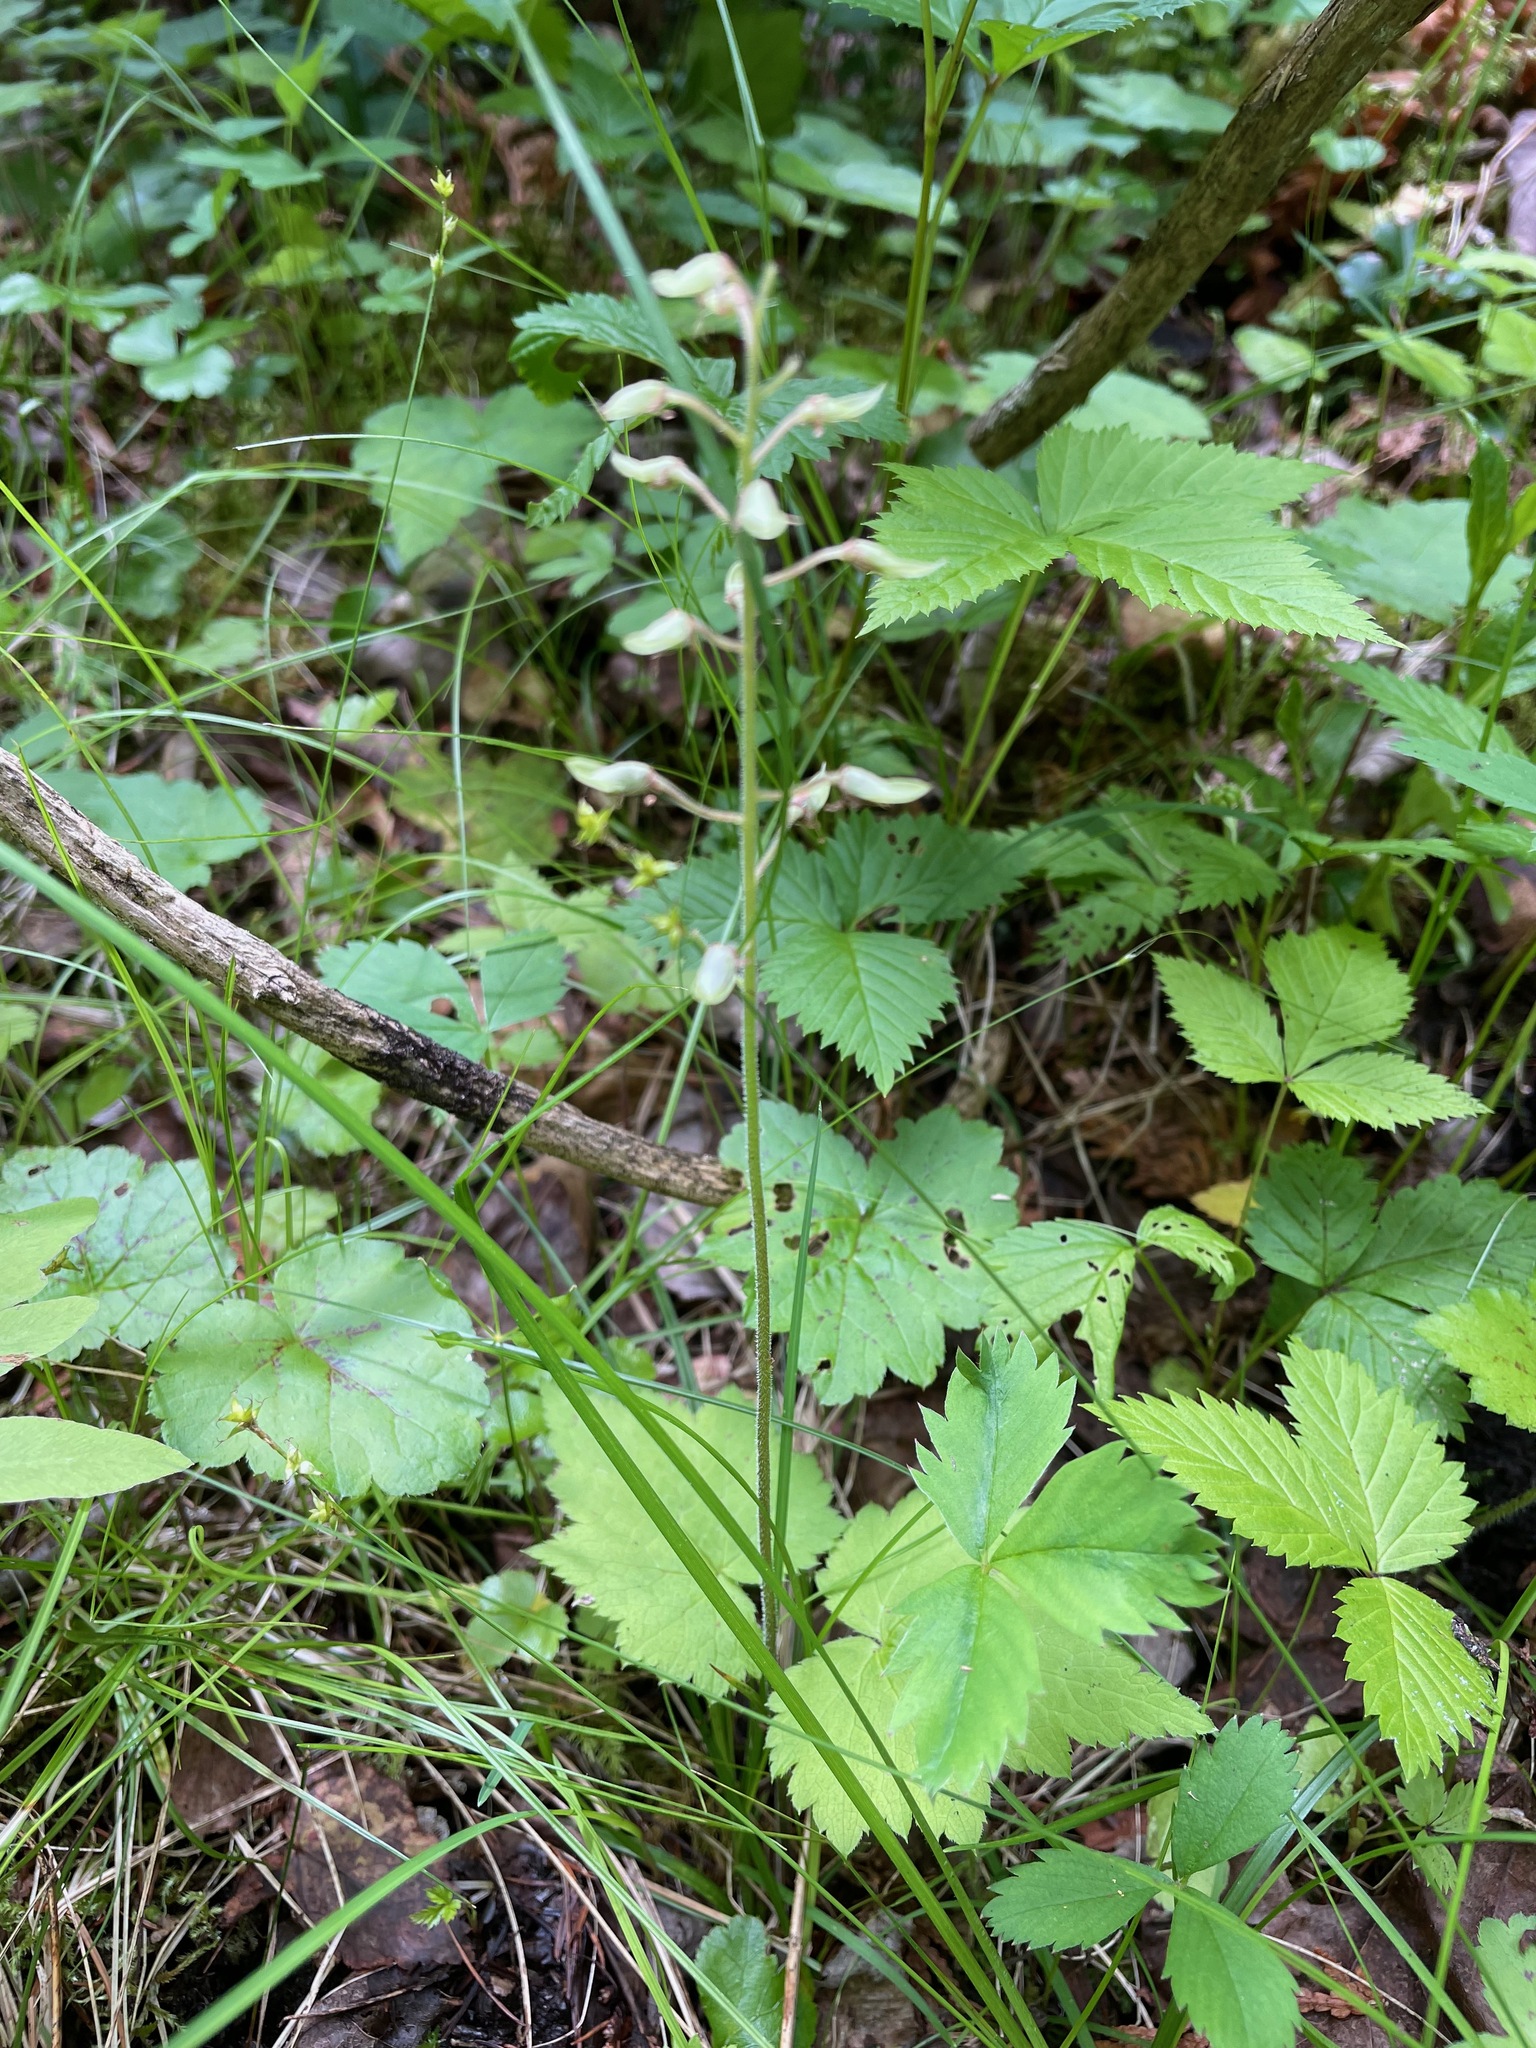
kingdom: Plantae
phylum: Tracheophyta
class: Magnoliopsida
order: Saxifragales
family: Saxifragaceae
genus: Tiarella
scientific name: Tiarella stolonifera
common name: Stoloniferous foamflower
